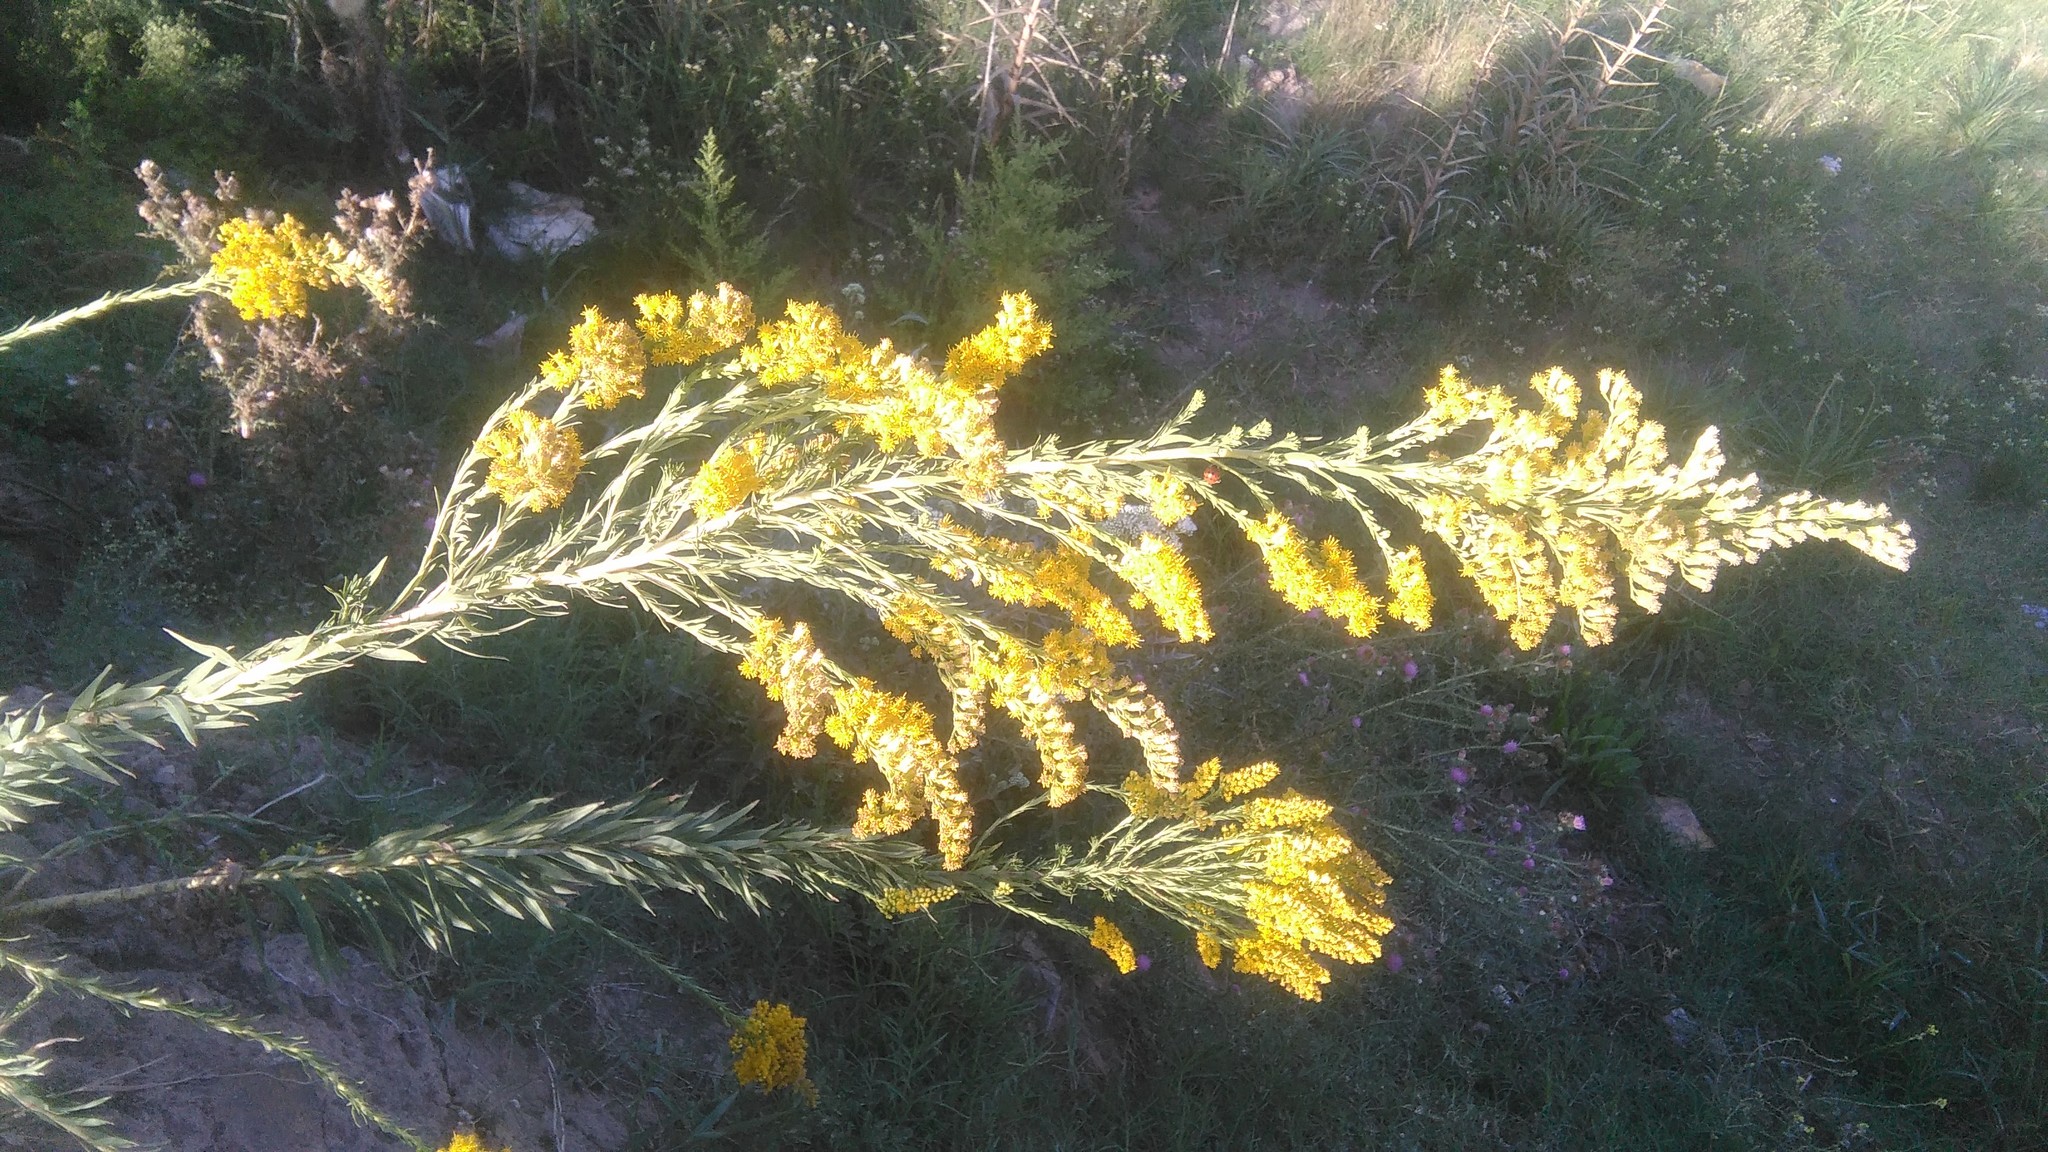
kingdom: Plantae
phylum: Tracheophyta
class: Magnoliopsida
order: Asterales
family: Asteraceae
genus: Solidago
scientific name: Solidago chilensis
